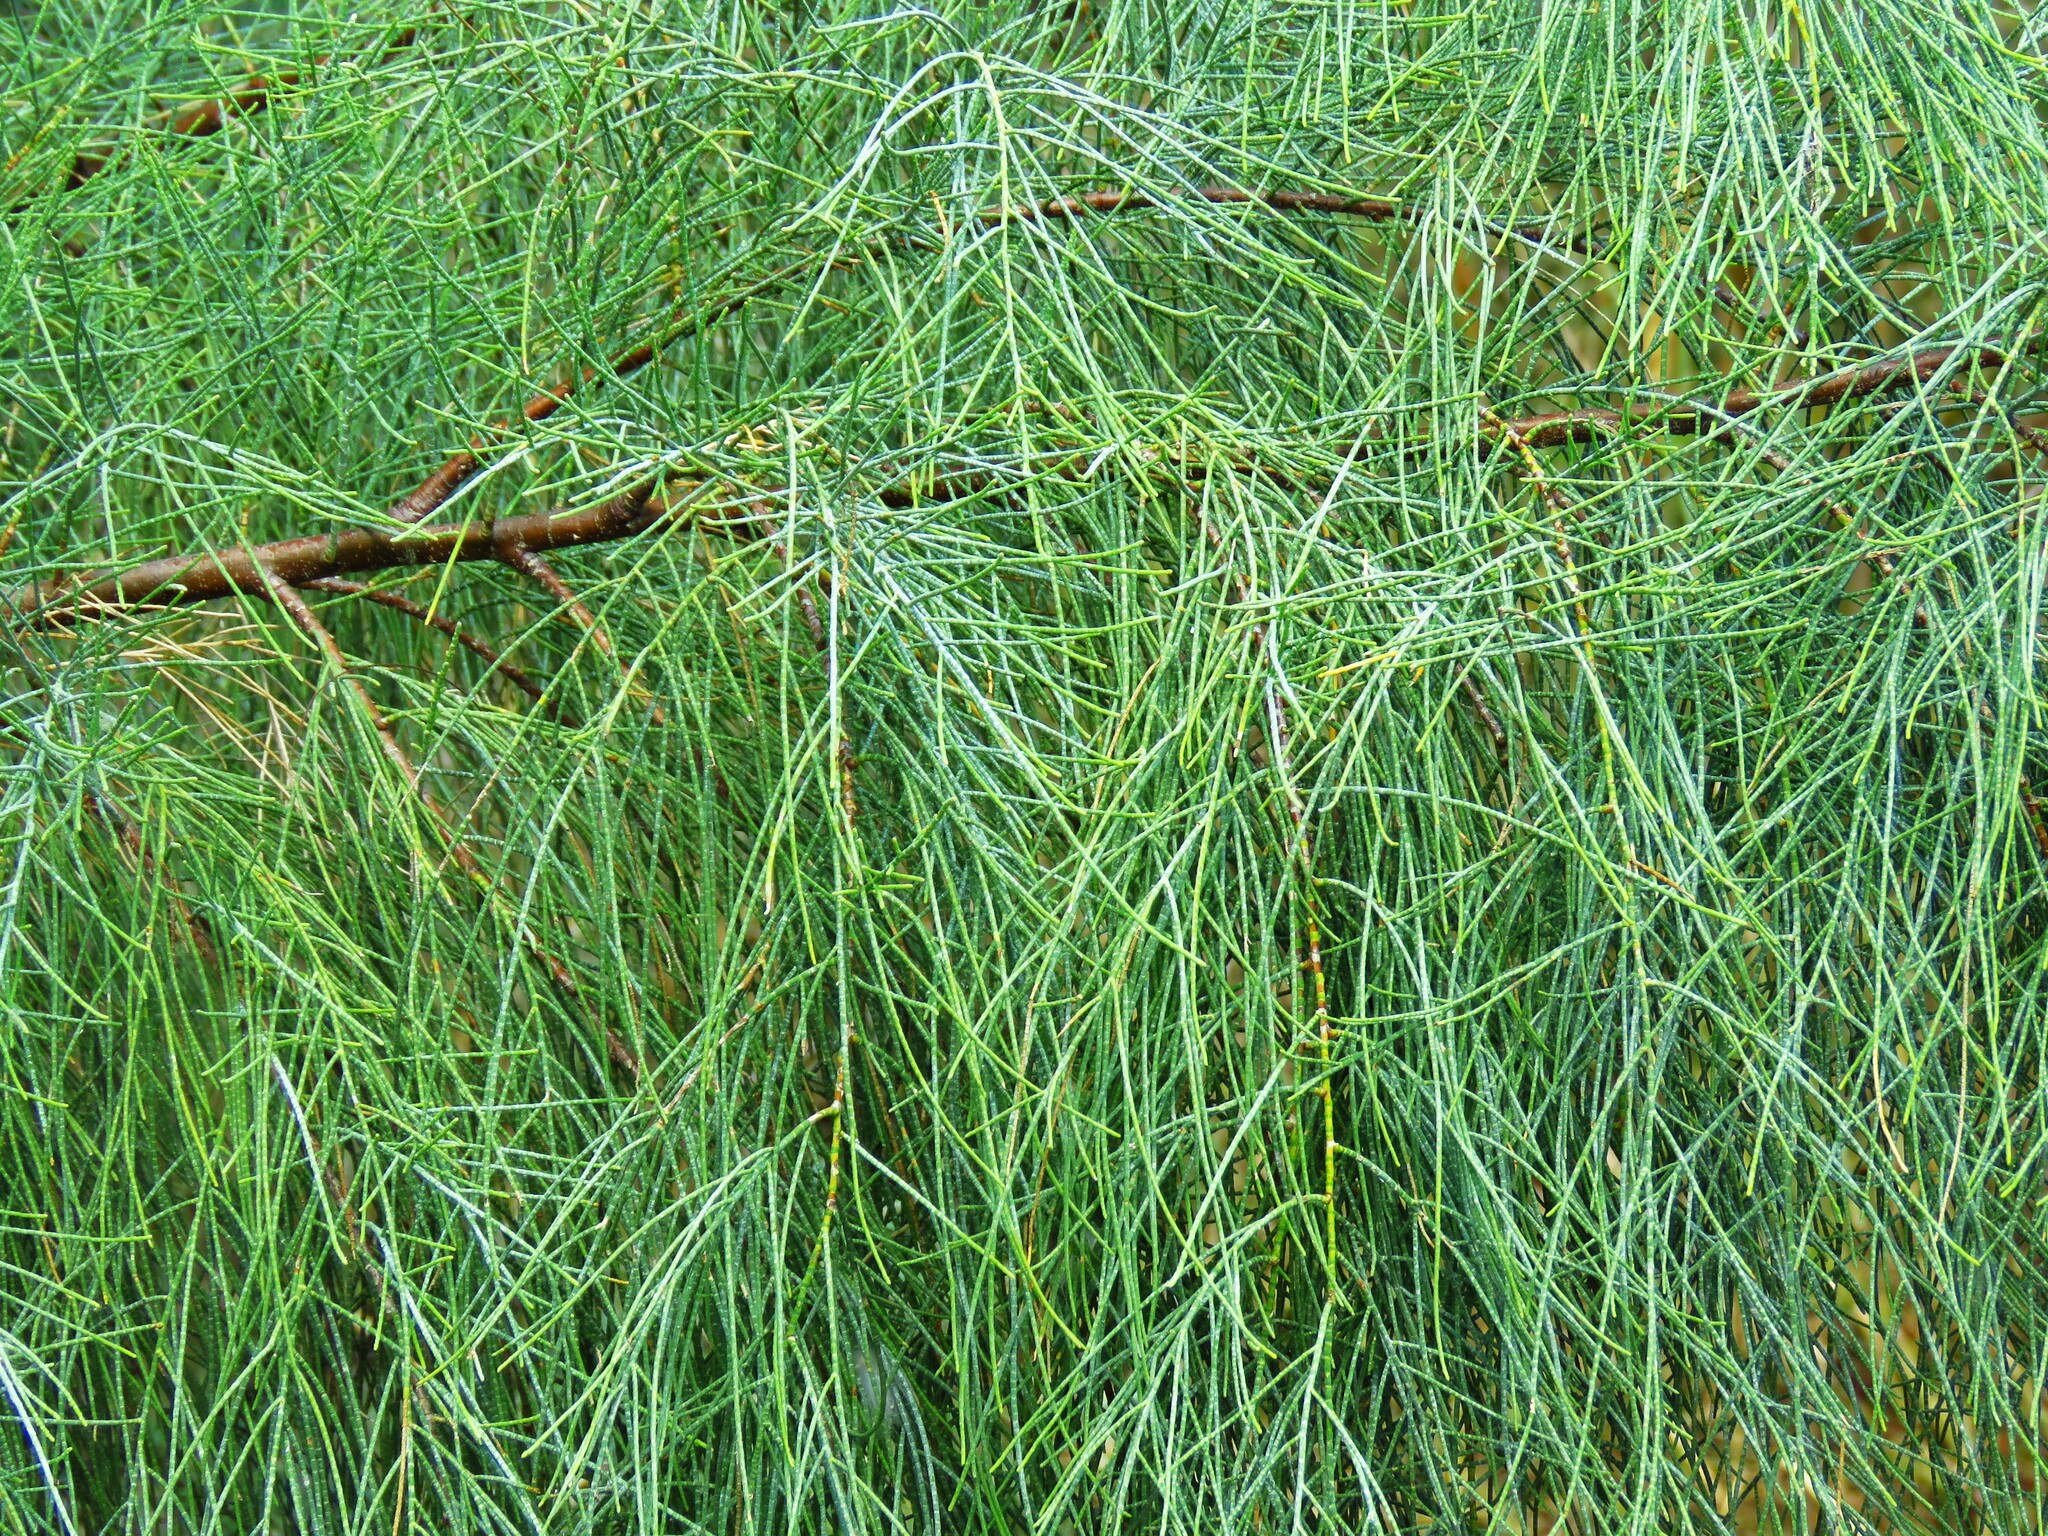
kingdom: Plantae
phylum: Tracheophyta
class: Magnoliopsida
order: Caryophyllales
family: Tamaricaceae
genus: Tamarix
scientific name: Tamarix aphylla
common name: Athel tamarisk
